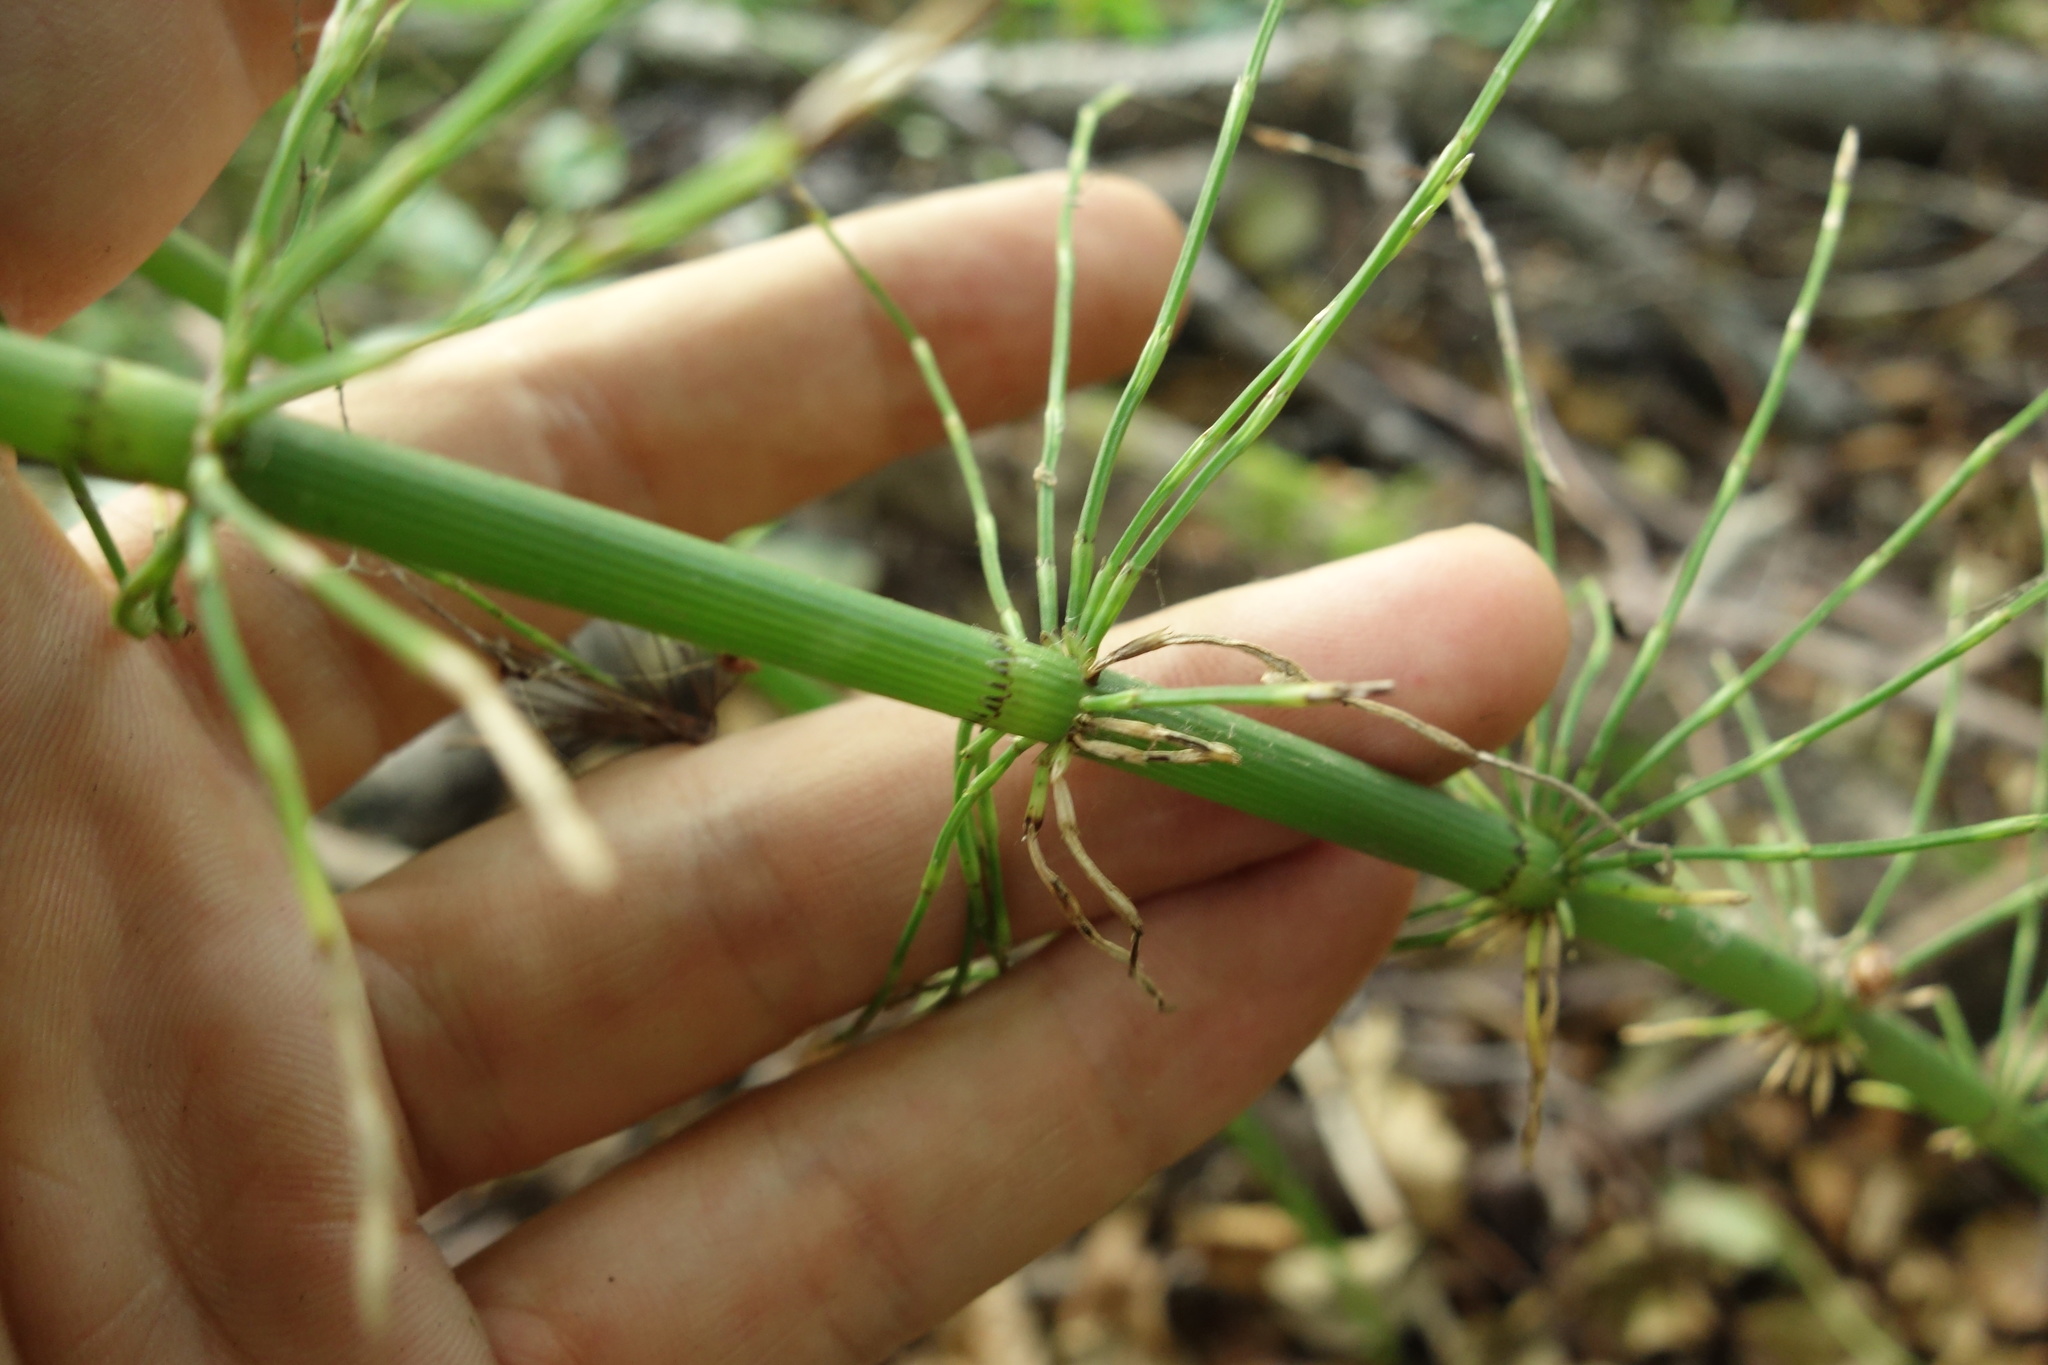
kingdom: Plantae
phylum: Tracheophyta
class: Polypodiopsida
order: Equisetales
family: Equisetaceae
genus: Equisetum
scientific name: Equisetum fluviatile
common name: Water horsetail
